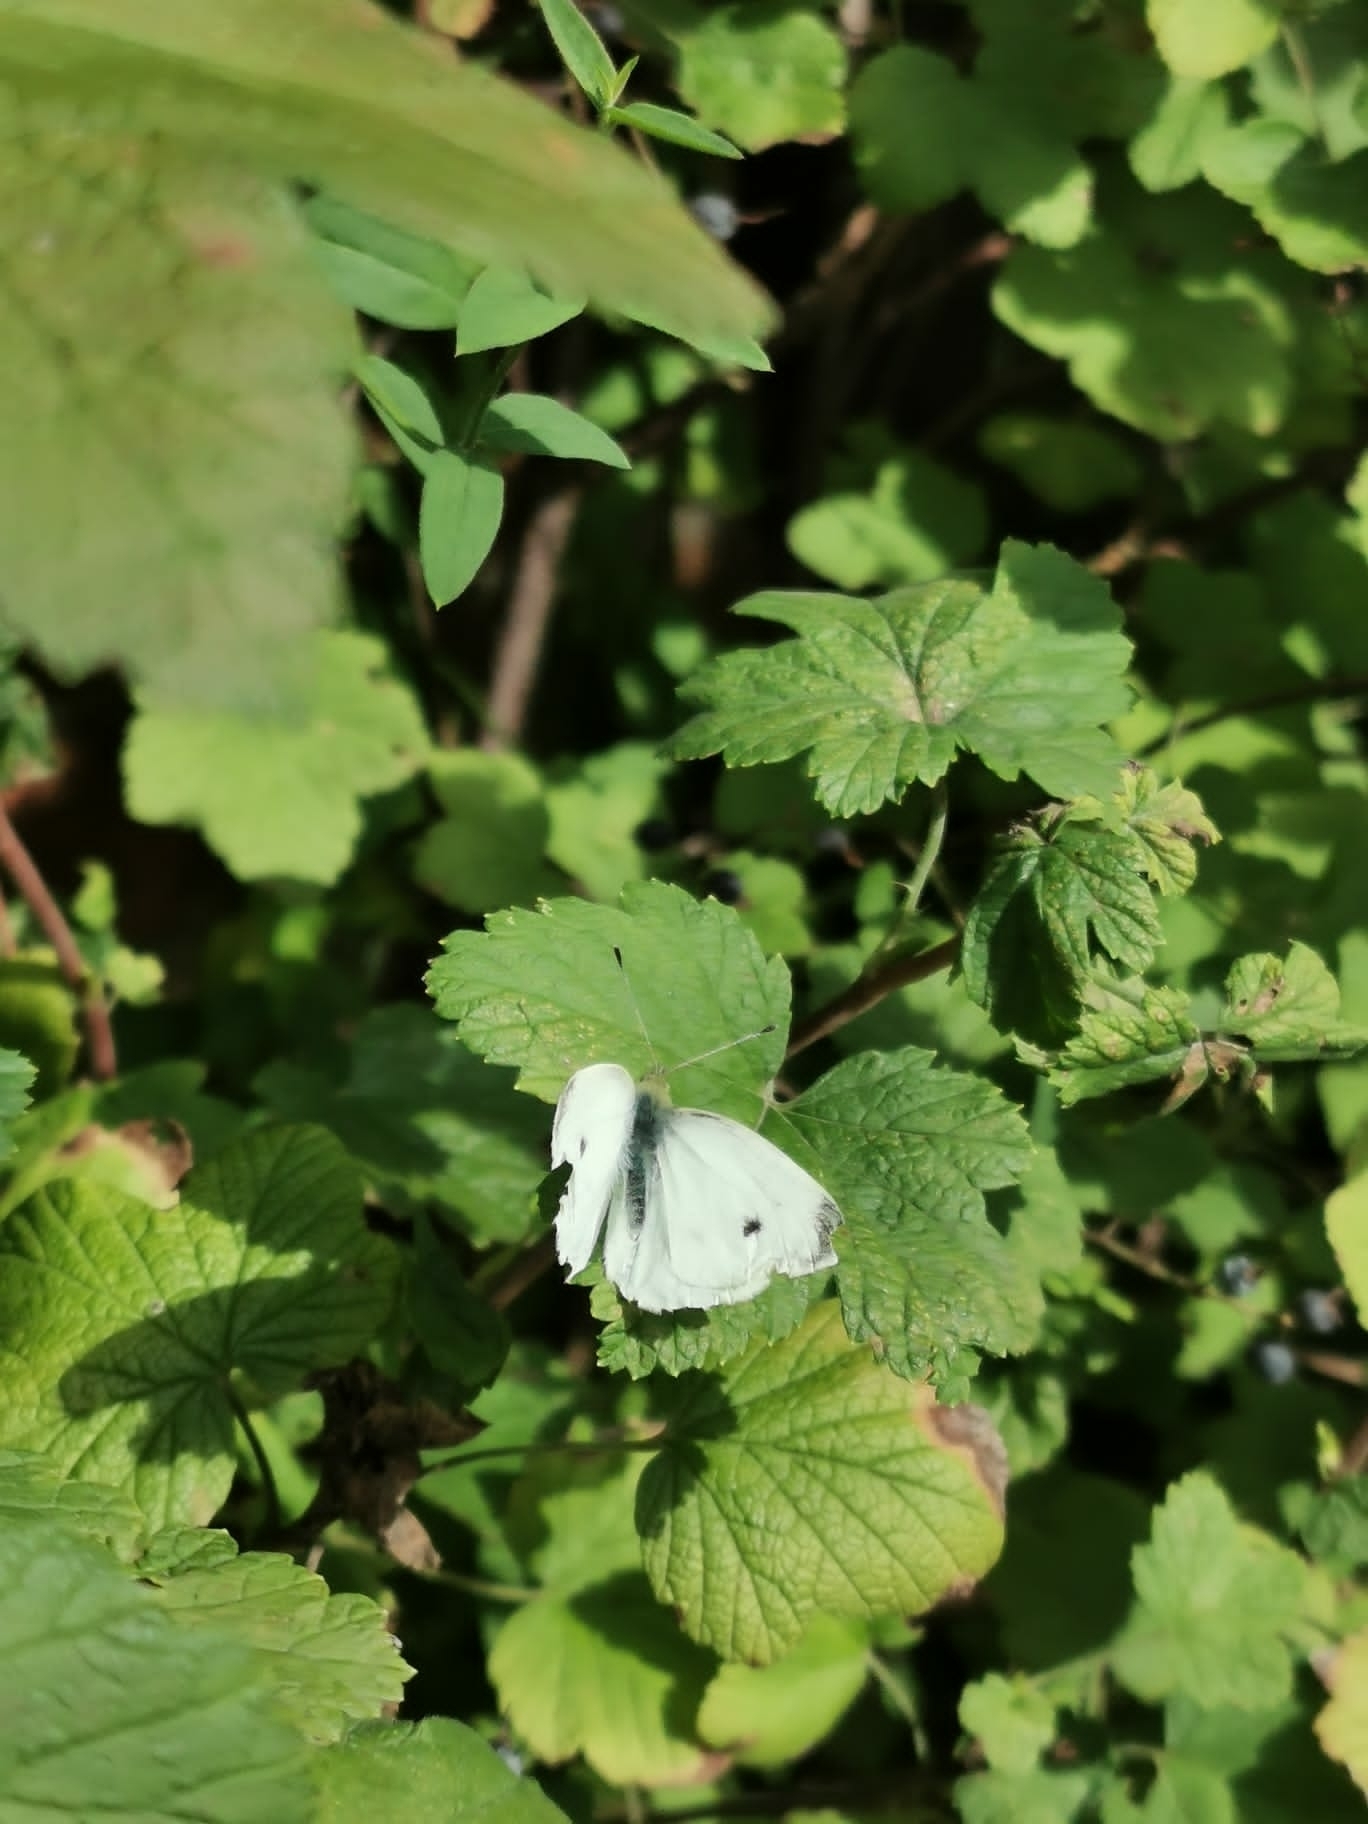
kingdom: Animalia
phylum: Arthropoda
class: Insecta
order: Lepidoptera
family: Pieridae
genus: Pieris
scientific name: Pieris napi
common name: Green-veined white
